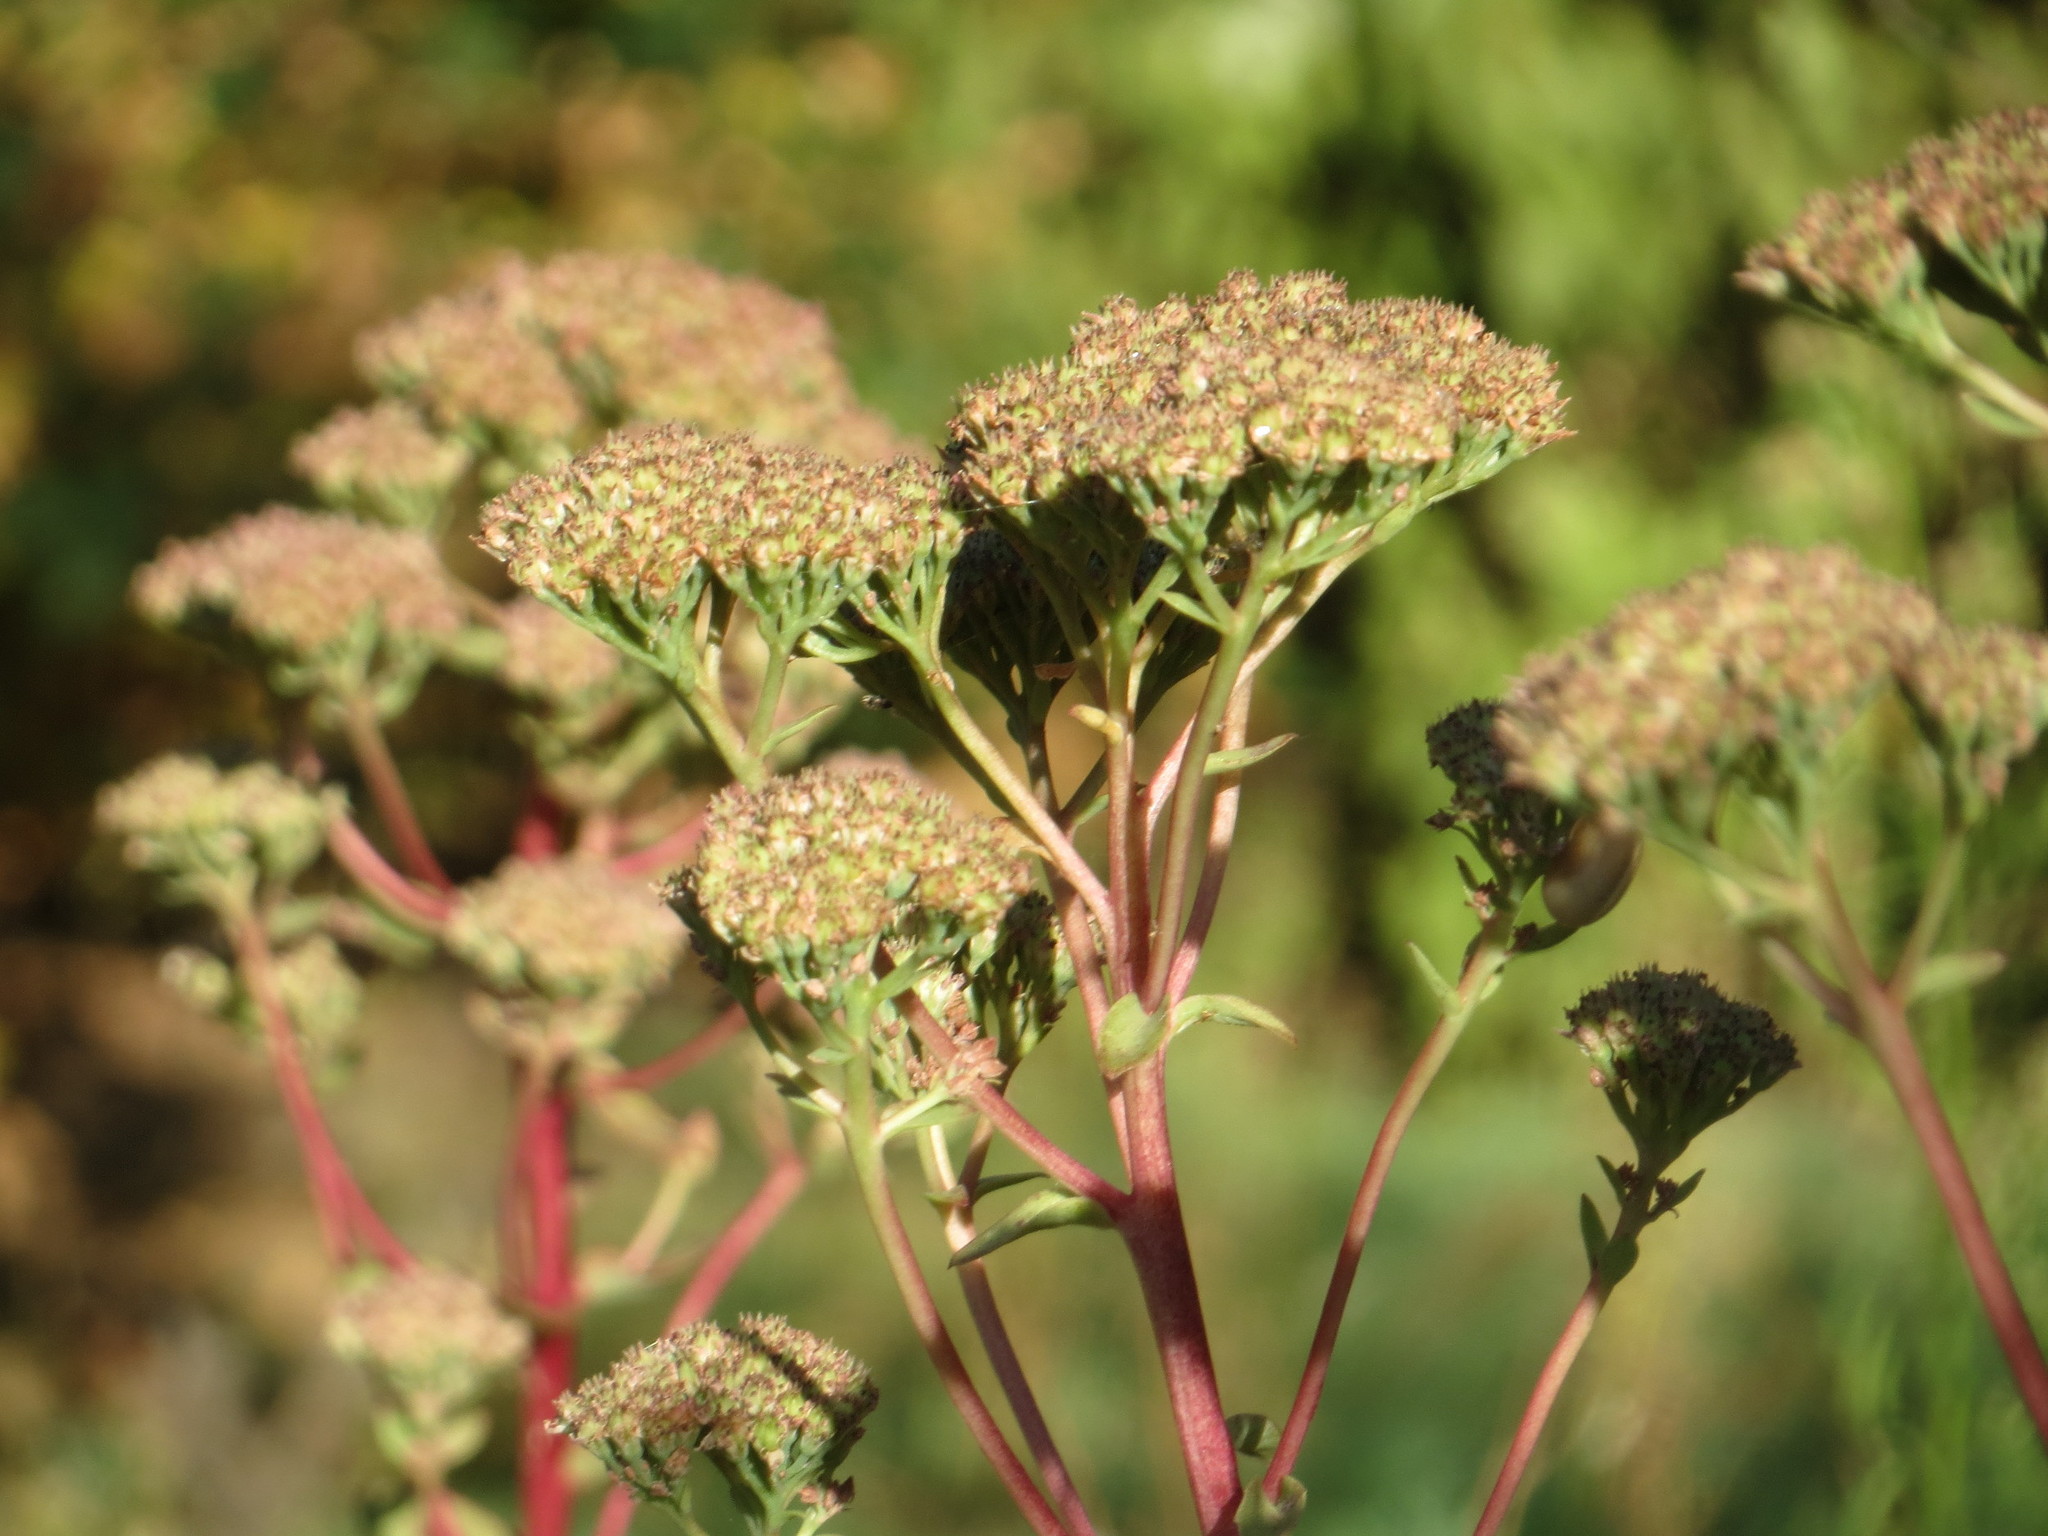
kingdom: Plantae
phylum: Tracheophyta
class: Magnoliopsida
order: Saxifragales
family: Crassulaceae
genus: Hylotelephium
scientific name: Hylotelephium maximum
